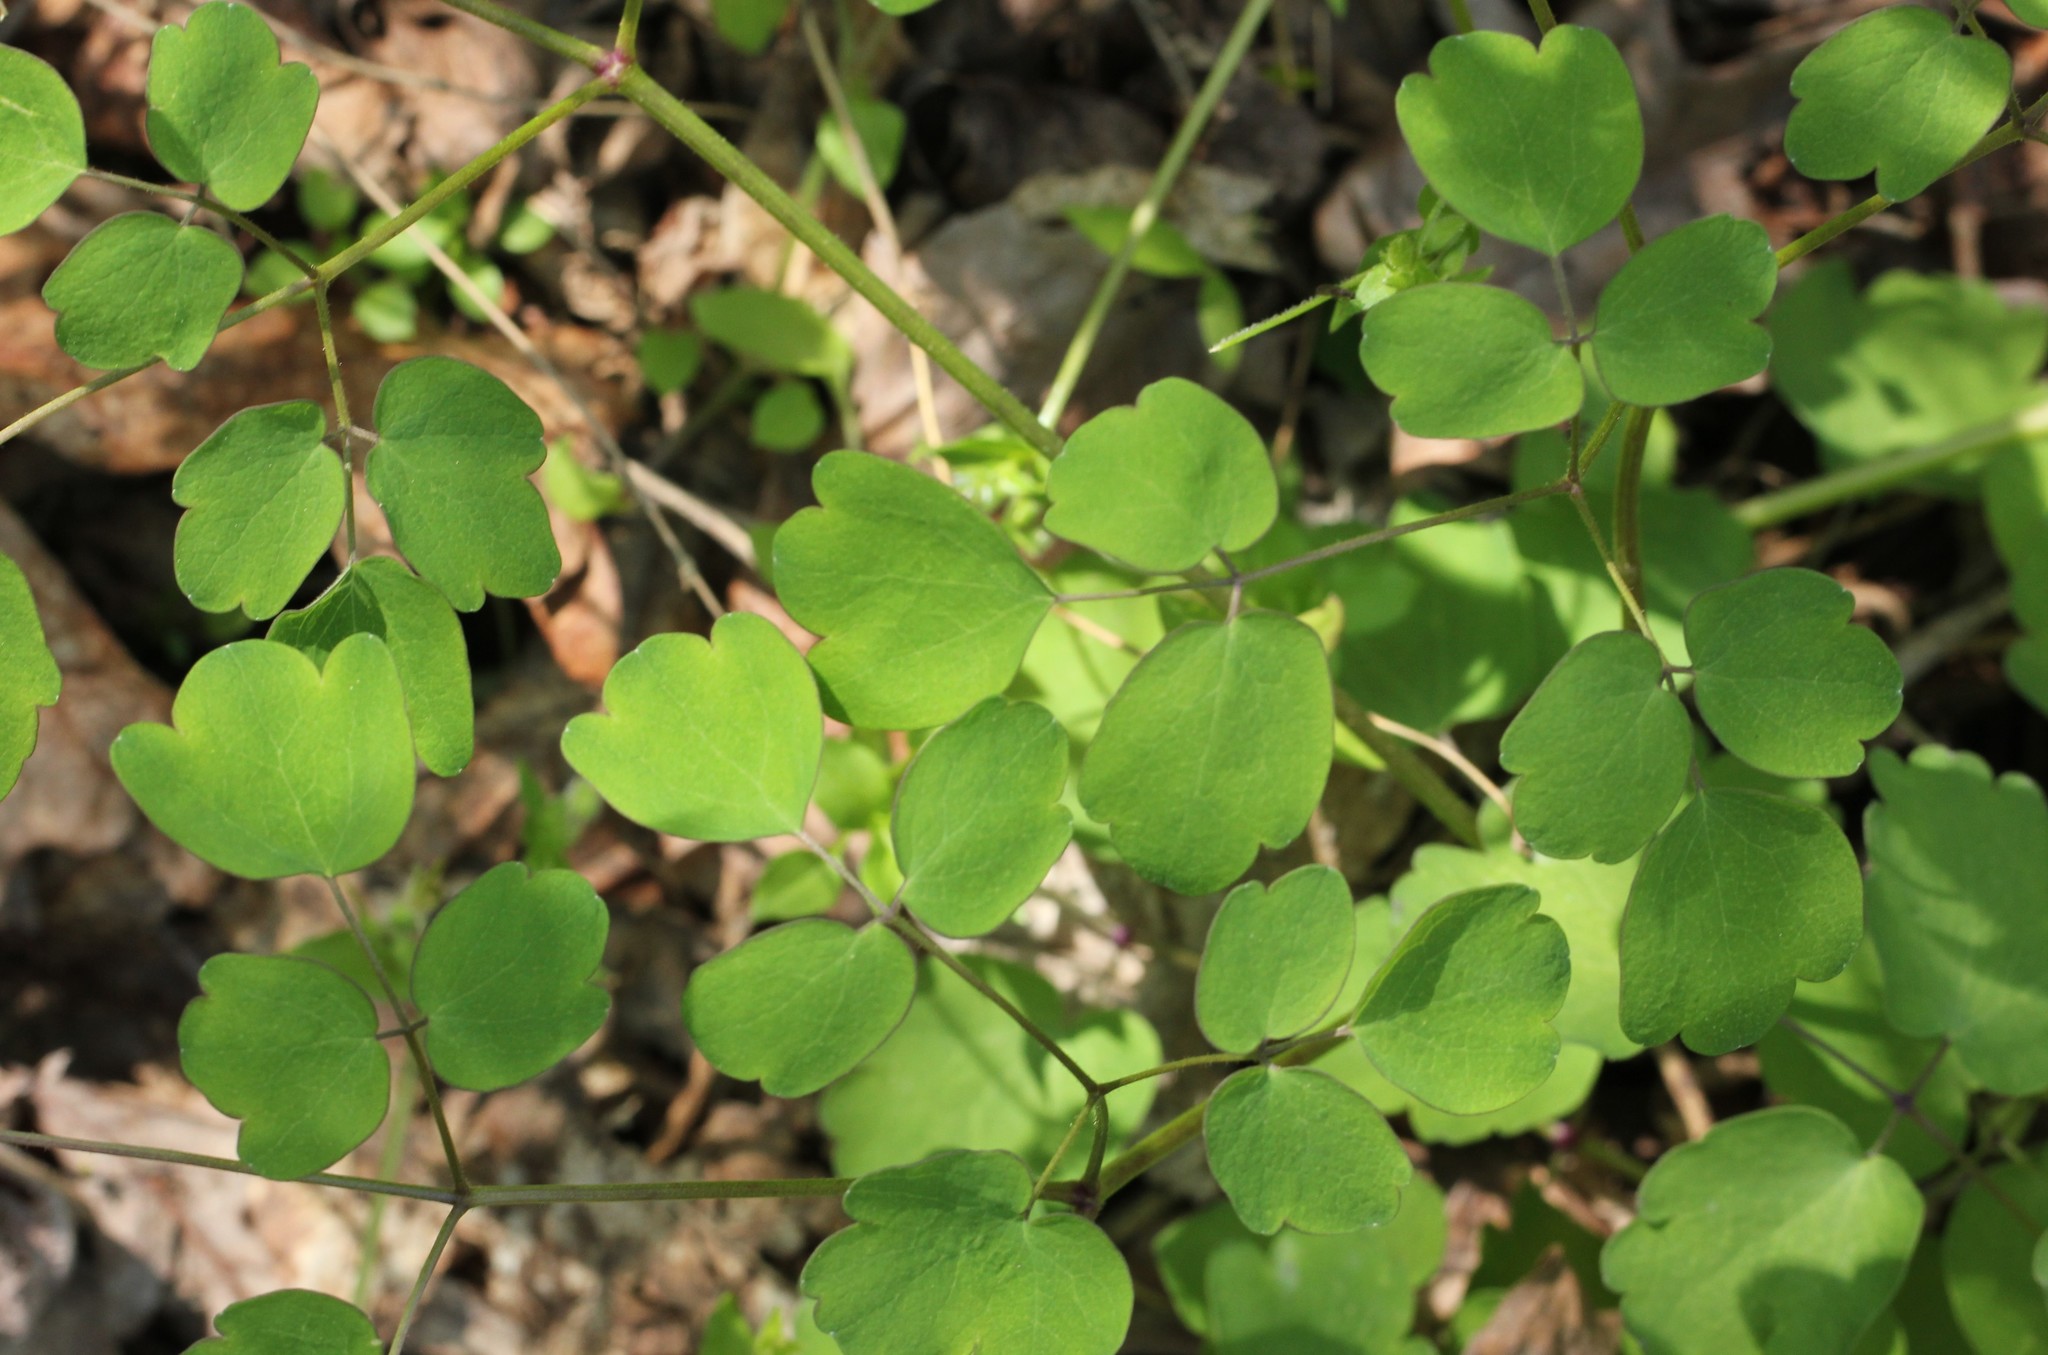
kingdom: Plantae
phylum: Tracheophyta
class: Magnoliopsida
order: Ranunculales
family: Ranunculaceae
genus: Thalictrum
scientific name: Thalictrum dioicum
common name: Early meadow-rue
